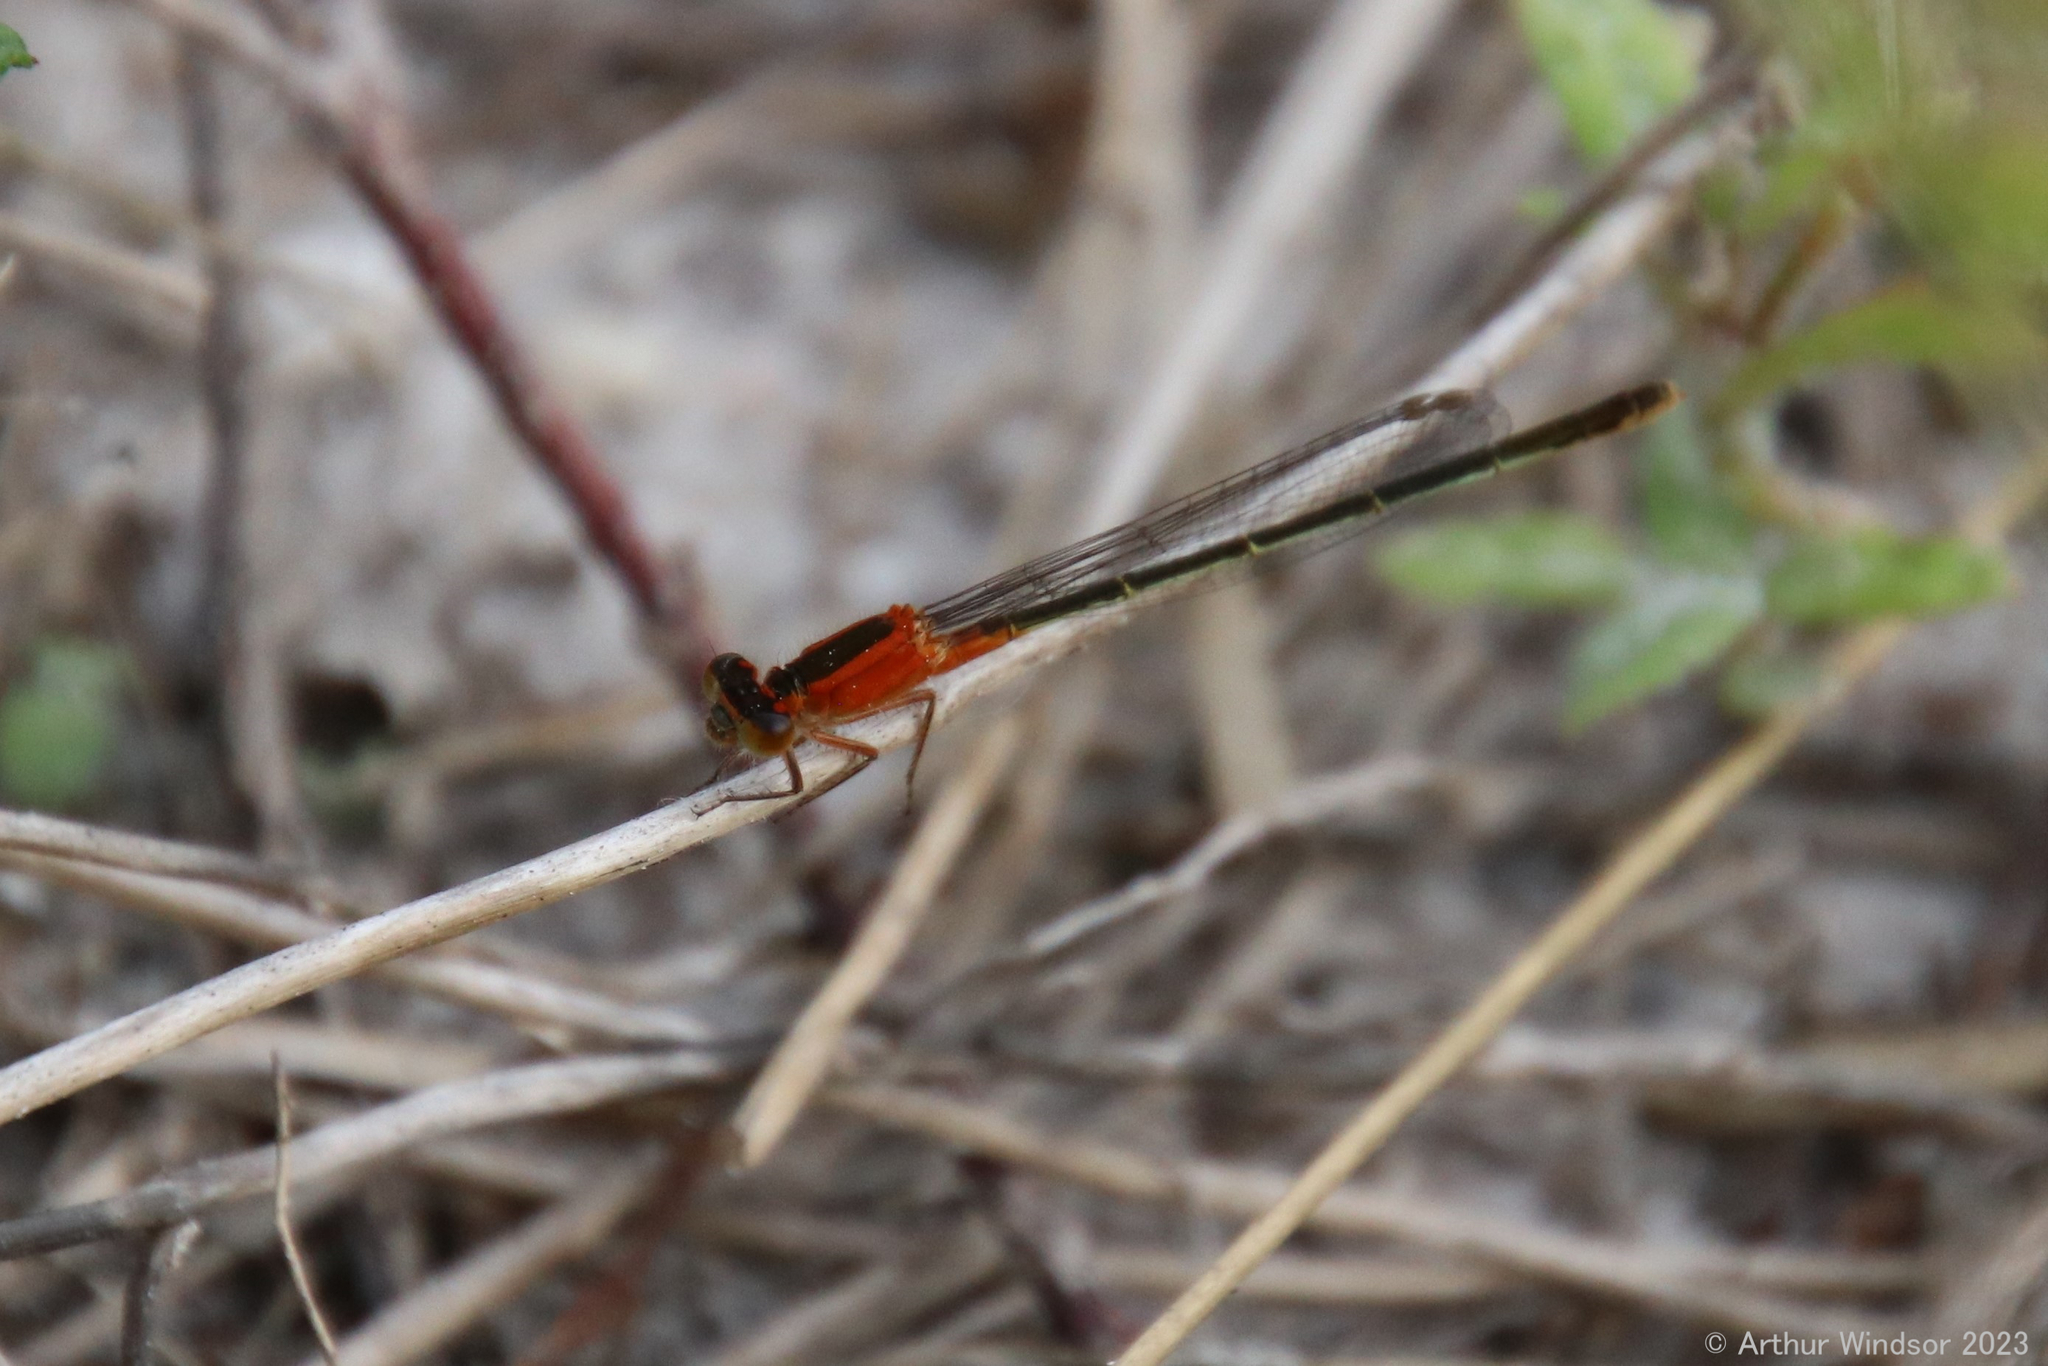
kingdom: Animalia
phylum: Arthropoda
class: Insecta
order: Odonata
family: Coenagrionidae
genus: Ischnura
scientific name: Ischnura ramburii
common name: Rambur's forktail
